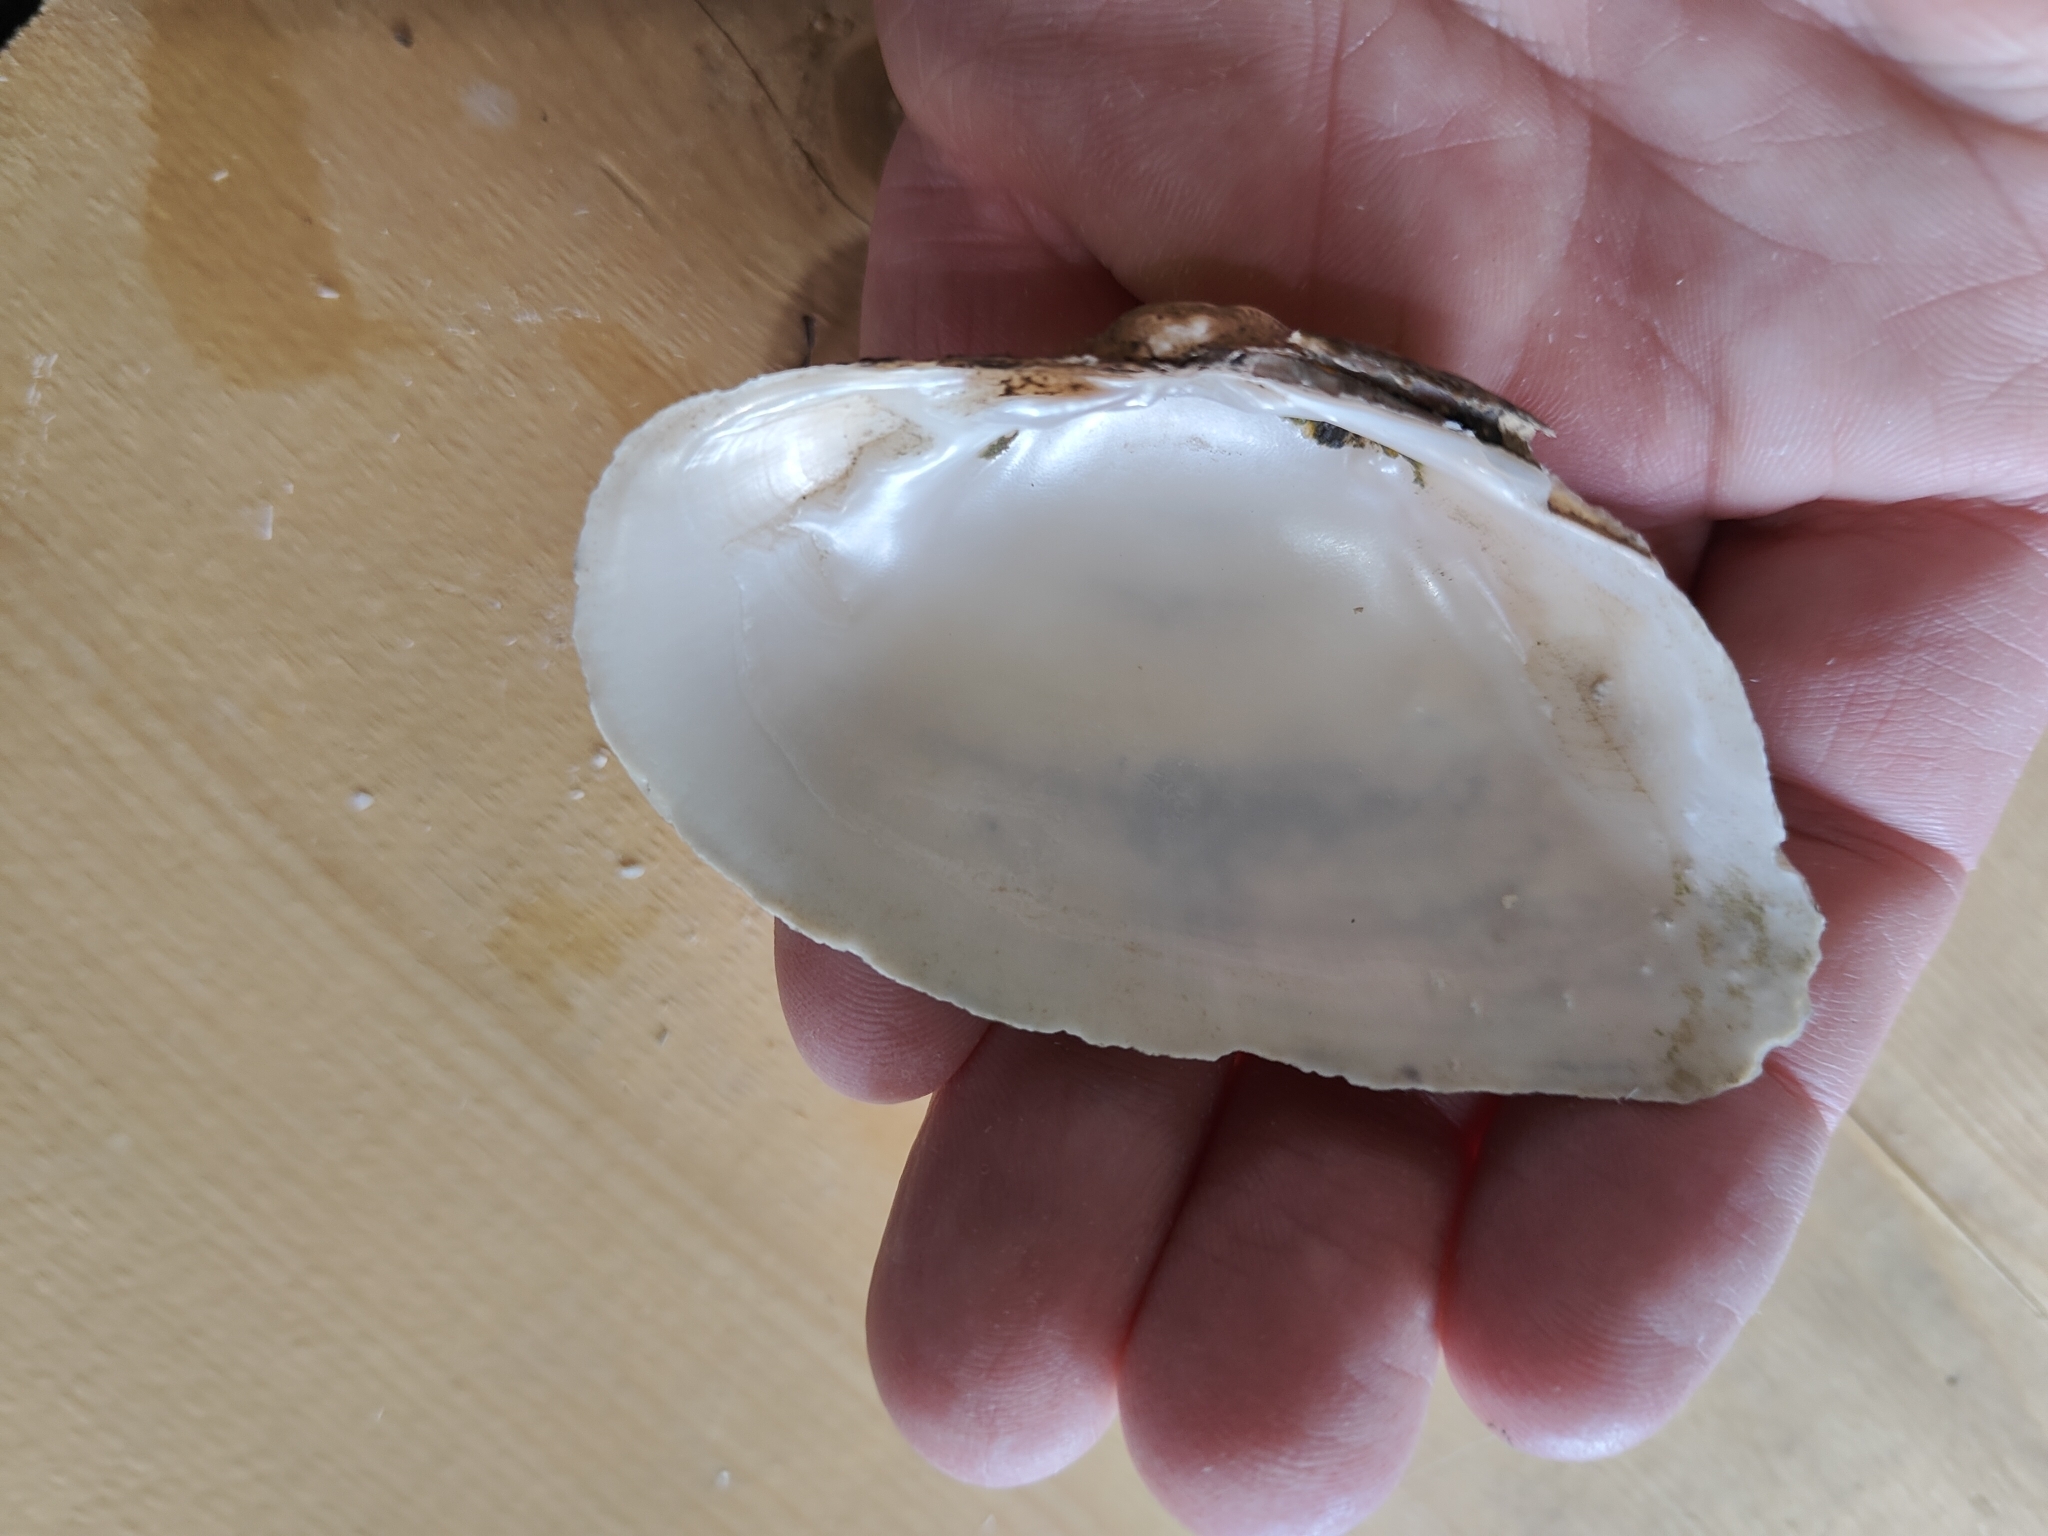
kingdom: Animalia
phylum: Mollusca
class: Bivalvia
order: Unionida
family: Unionidae
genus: Alasmidonta
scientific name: Alasmidonta marginata
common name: Elktoe
